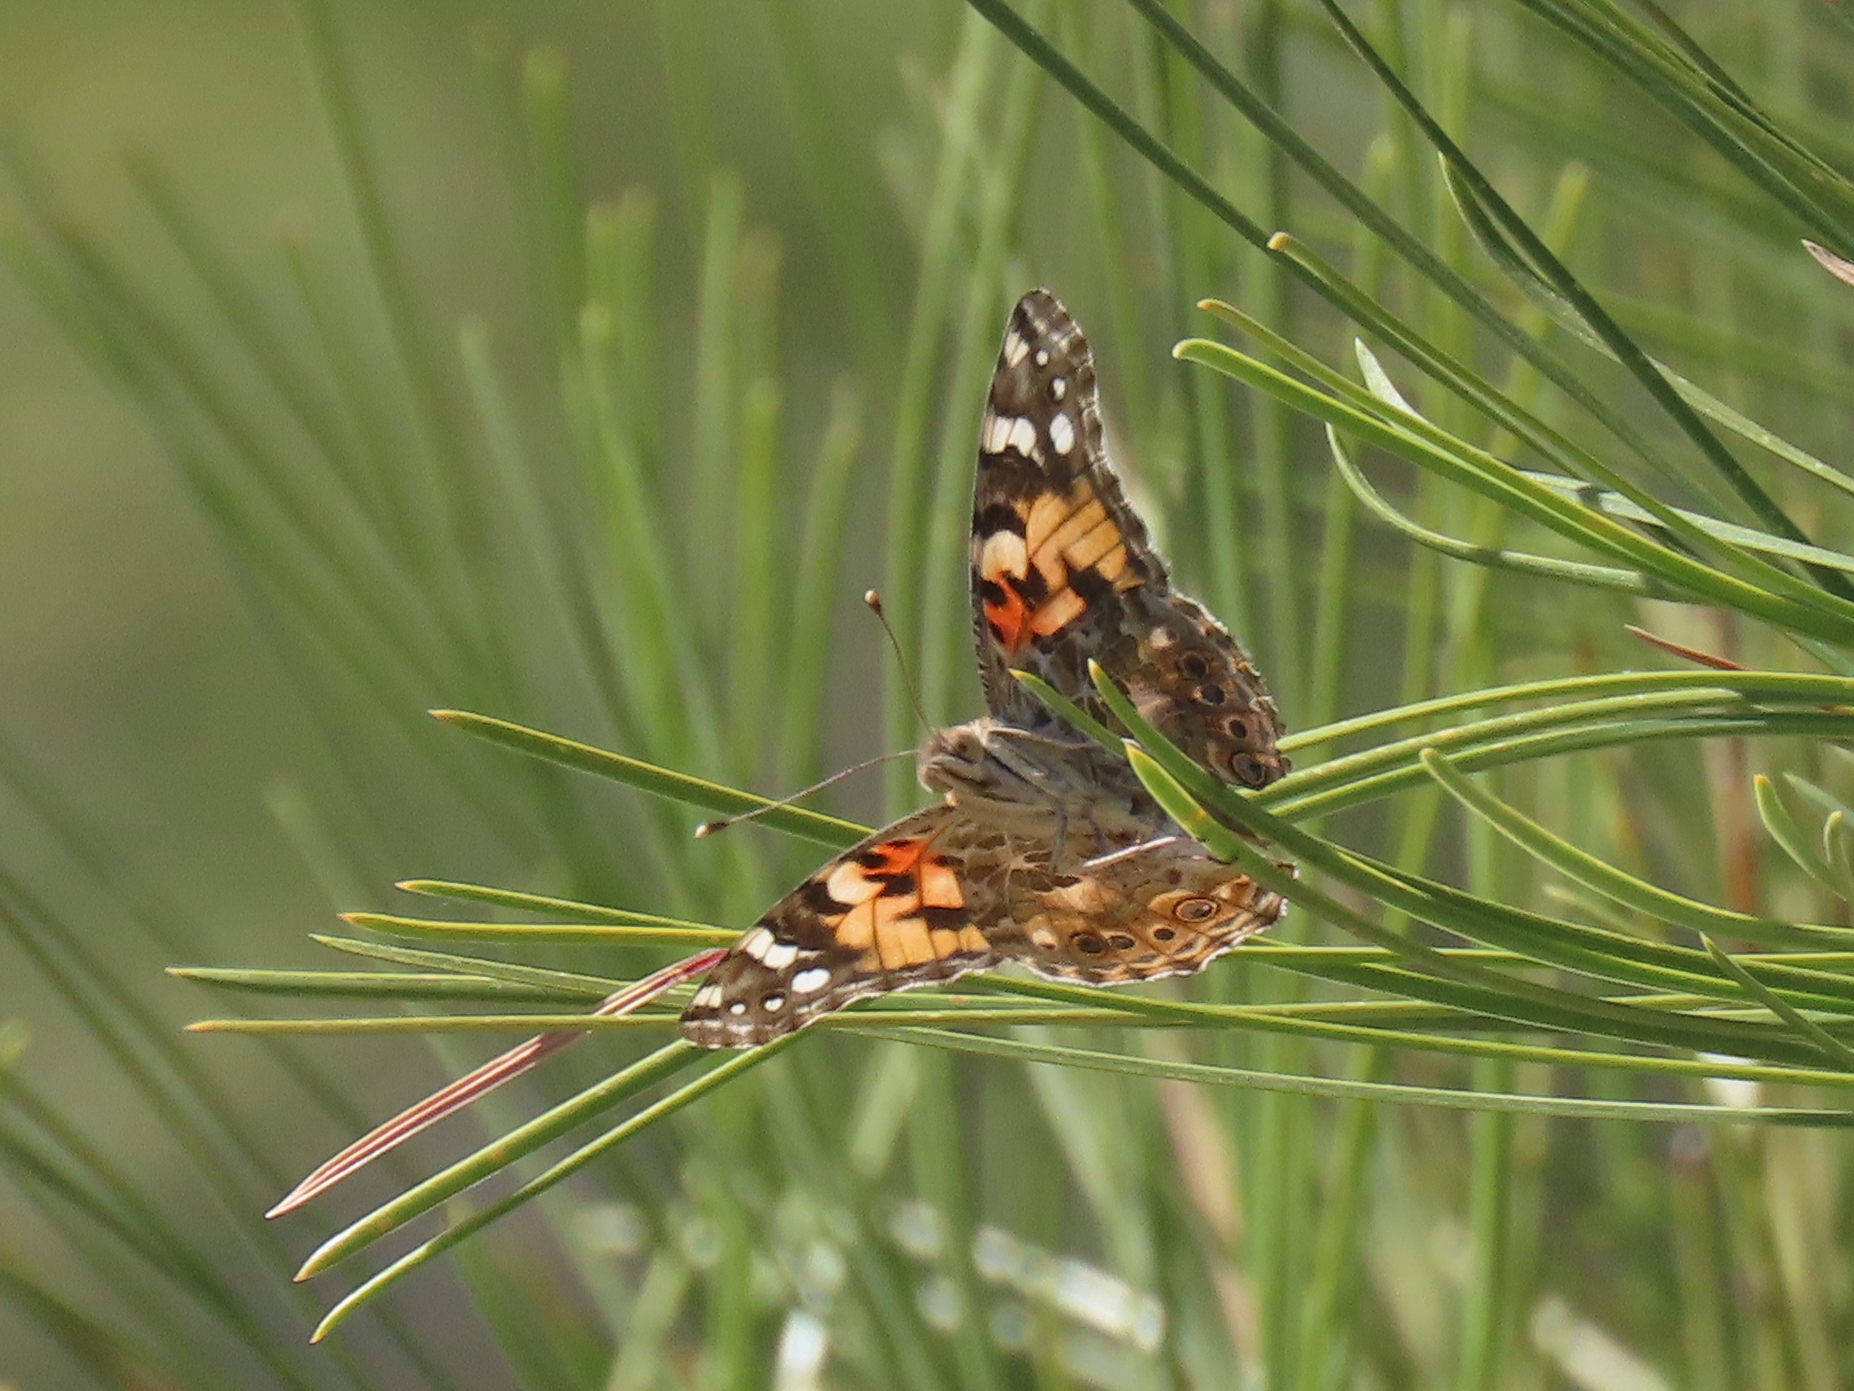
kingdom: Animalia
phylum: Arthropoda
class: Insecta
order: Lepidoptera
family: Nymphalidae
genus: Vanessa
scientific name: Vanessa cardui
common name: Painted lady
